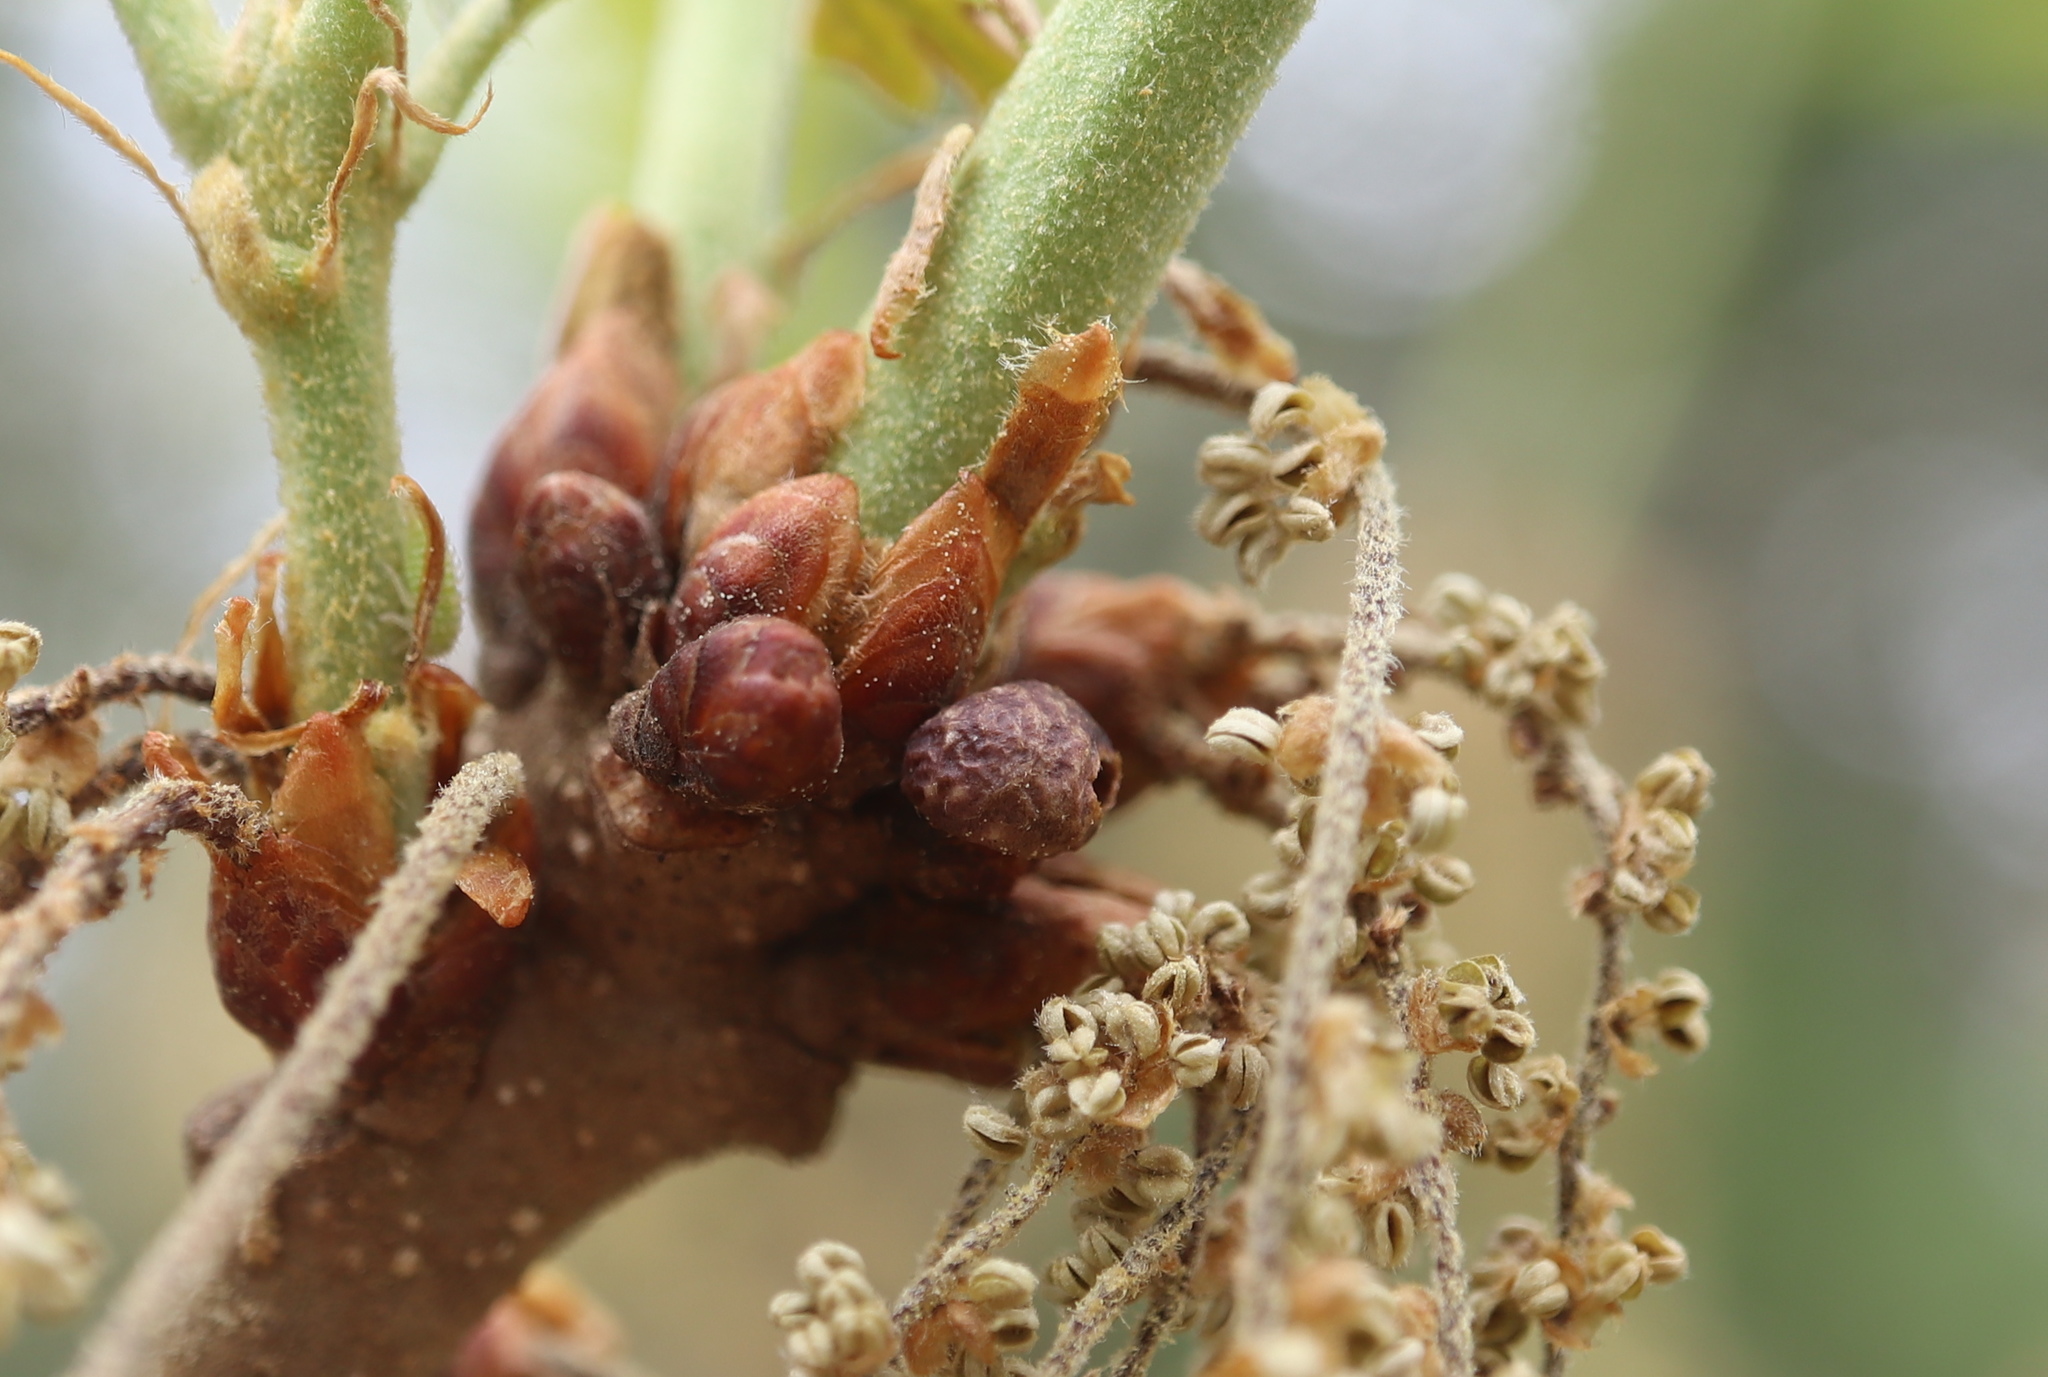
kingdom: Animalia
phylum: Arthropoda
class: Insecta
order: Hymenoptera
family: Cynipidae
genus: Neuroterus
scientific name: Neuroterus
